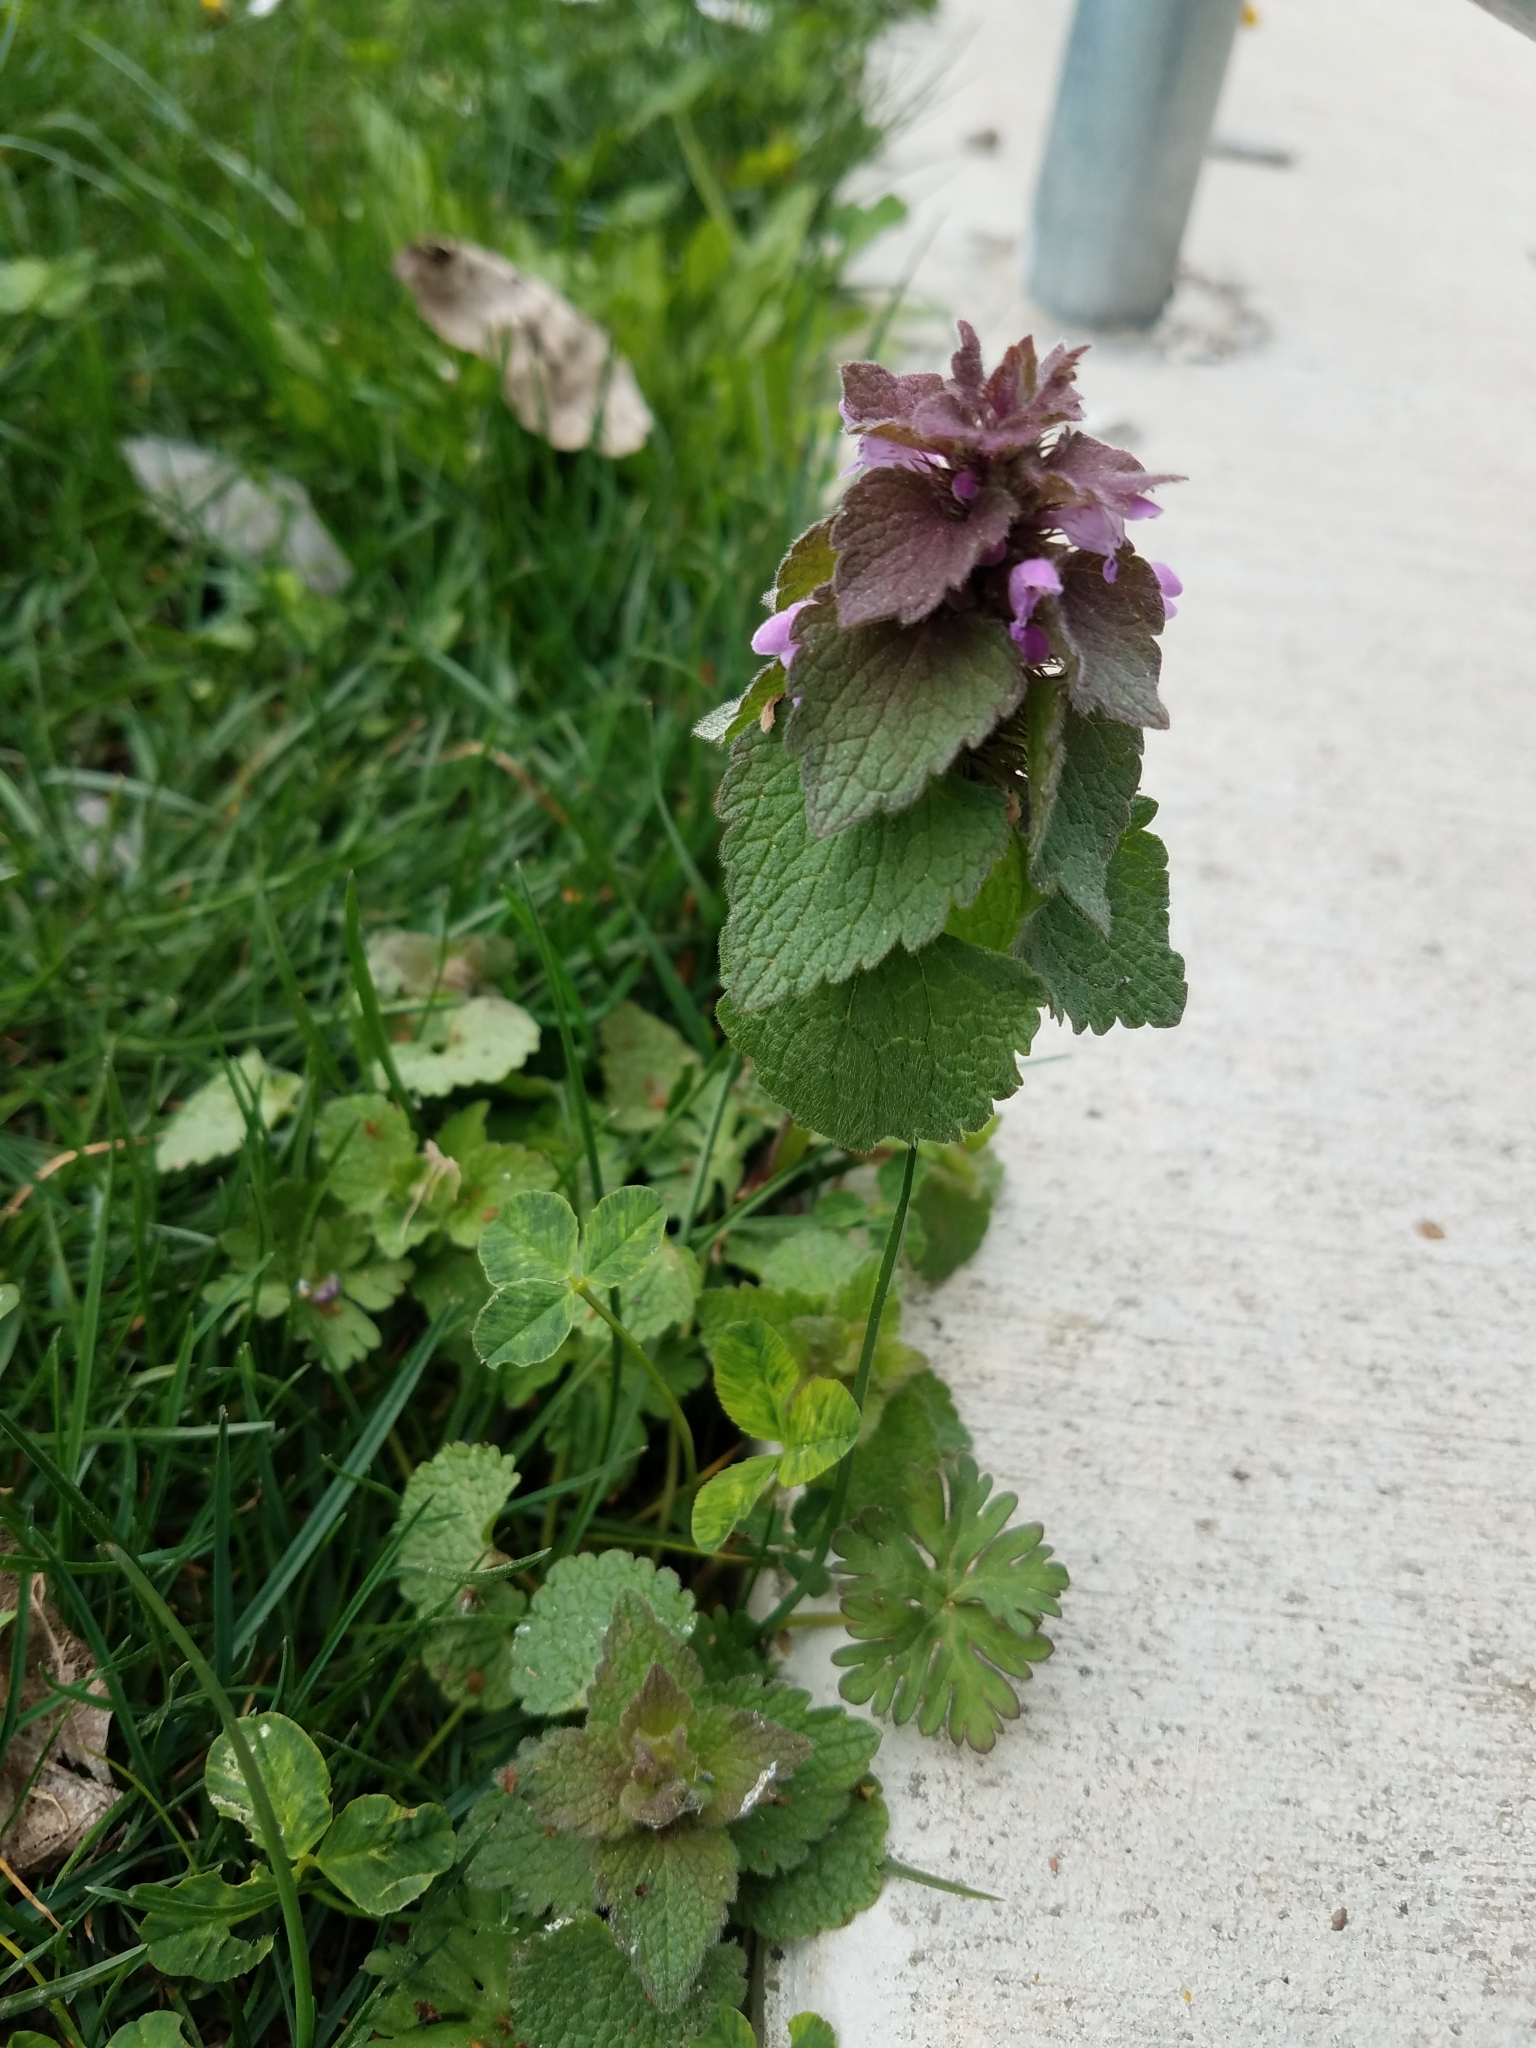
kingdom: Plantae
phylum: Tracheophyta
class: Magnoliopsida
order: Lamiales
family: Lamiaceae
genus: Lamium
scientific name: Lamium purpureum
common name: Red dead-nettle
